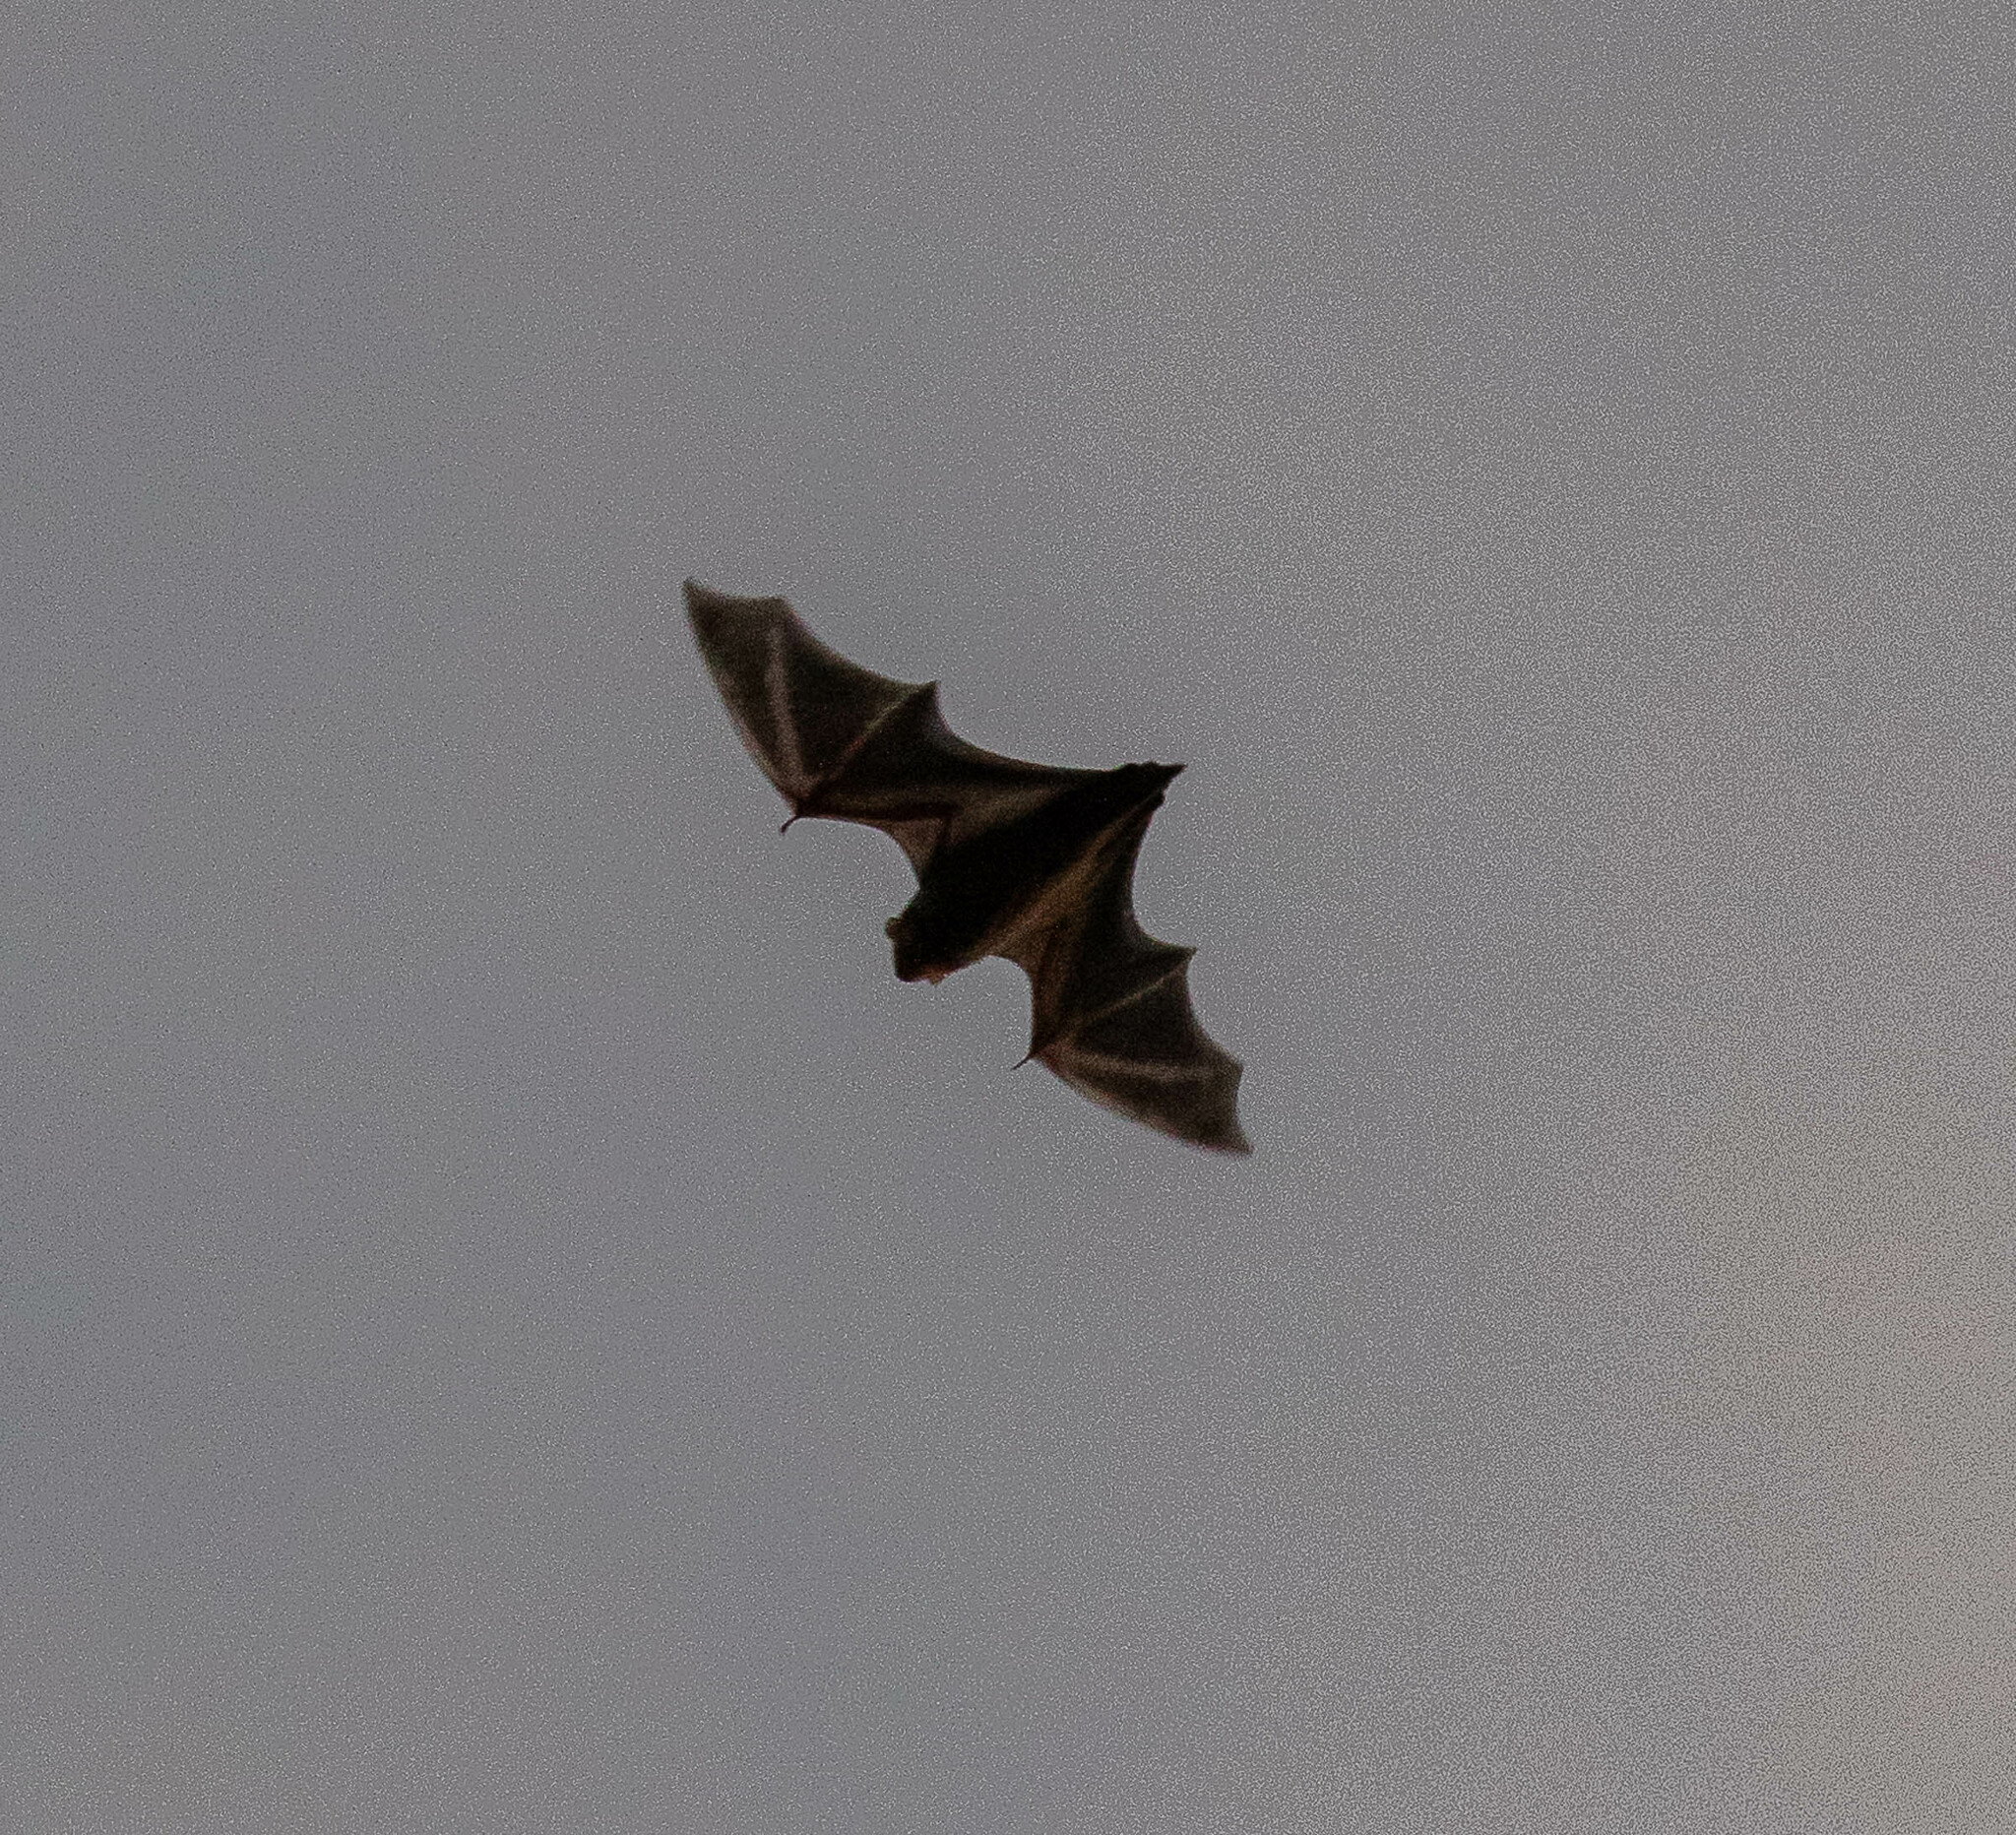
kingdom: Animalia
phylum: Chordata
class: Mammalia
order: Chiroptera
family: Vespertilionidae
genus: Lasiurus
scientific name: Lasiurus borealis
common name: Eastern red bat
